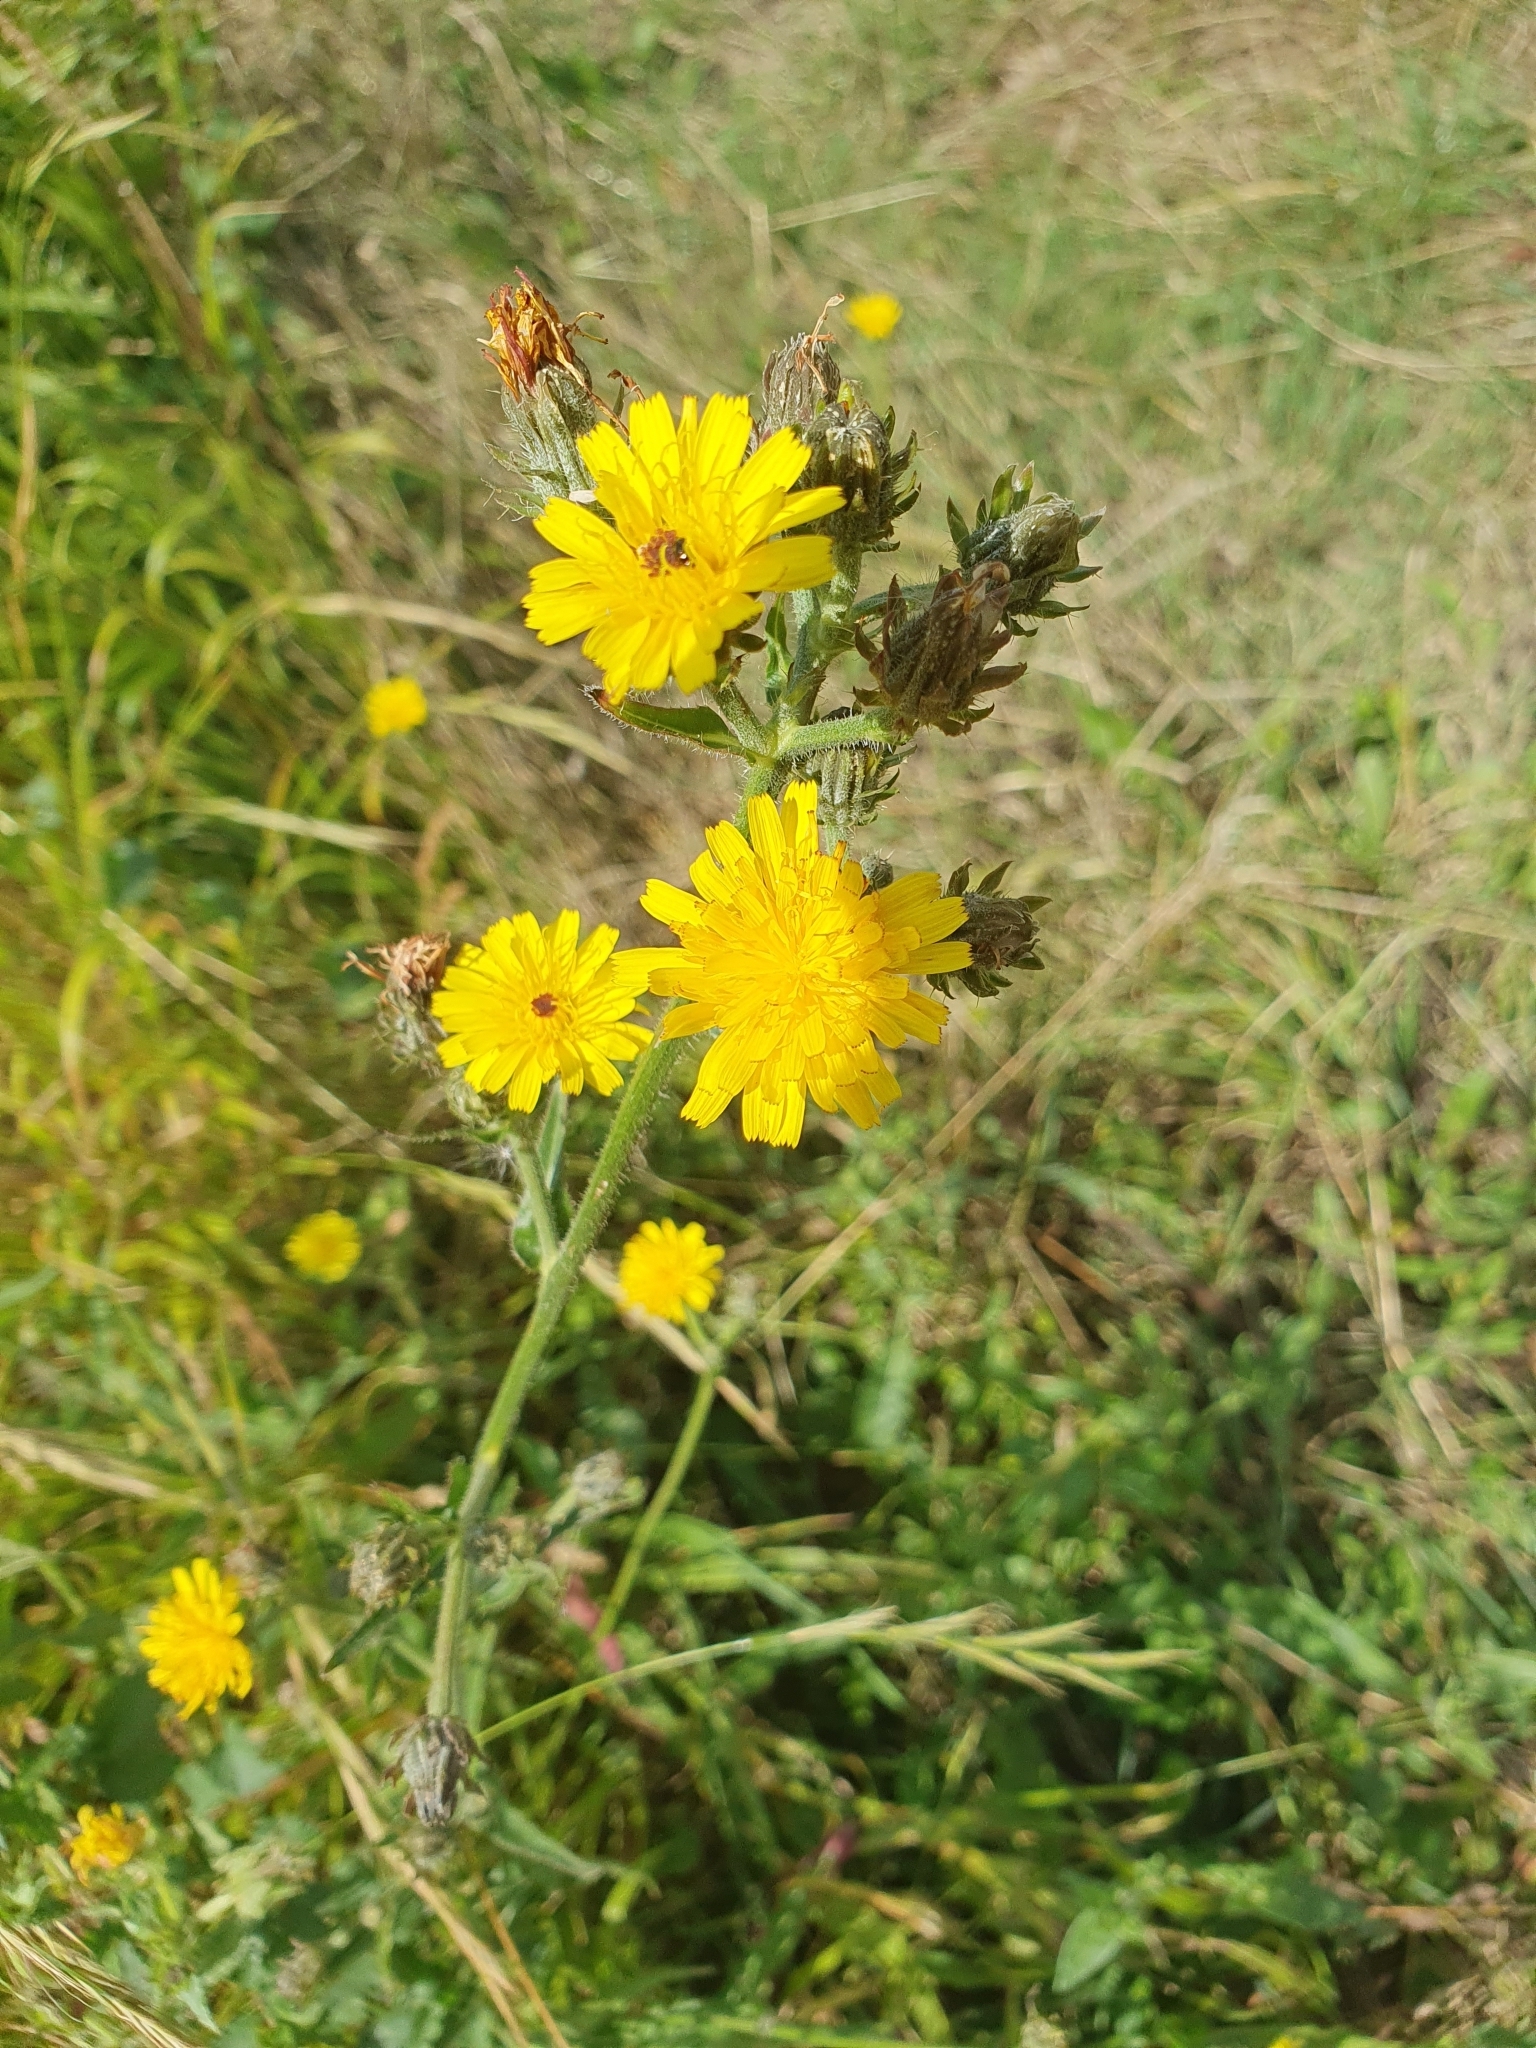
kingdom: Plantae
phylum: Tracheophyta
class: Magnoliopsida
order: Asterales
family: Asteraceae
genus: Picris
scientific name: Picris hieracioides
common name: Hawkweed oxtongue
